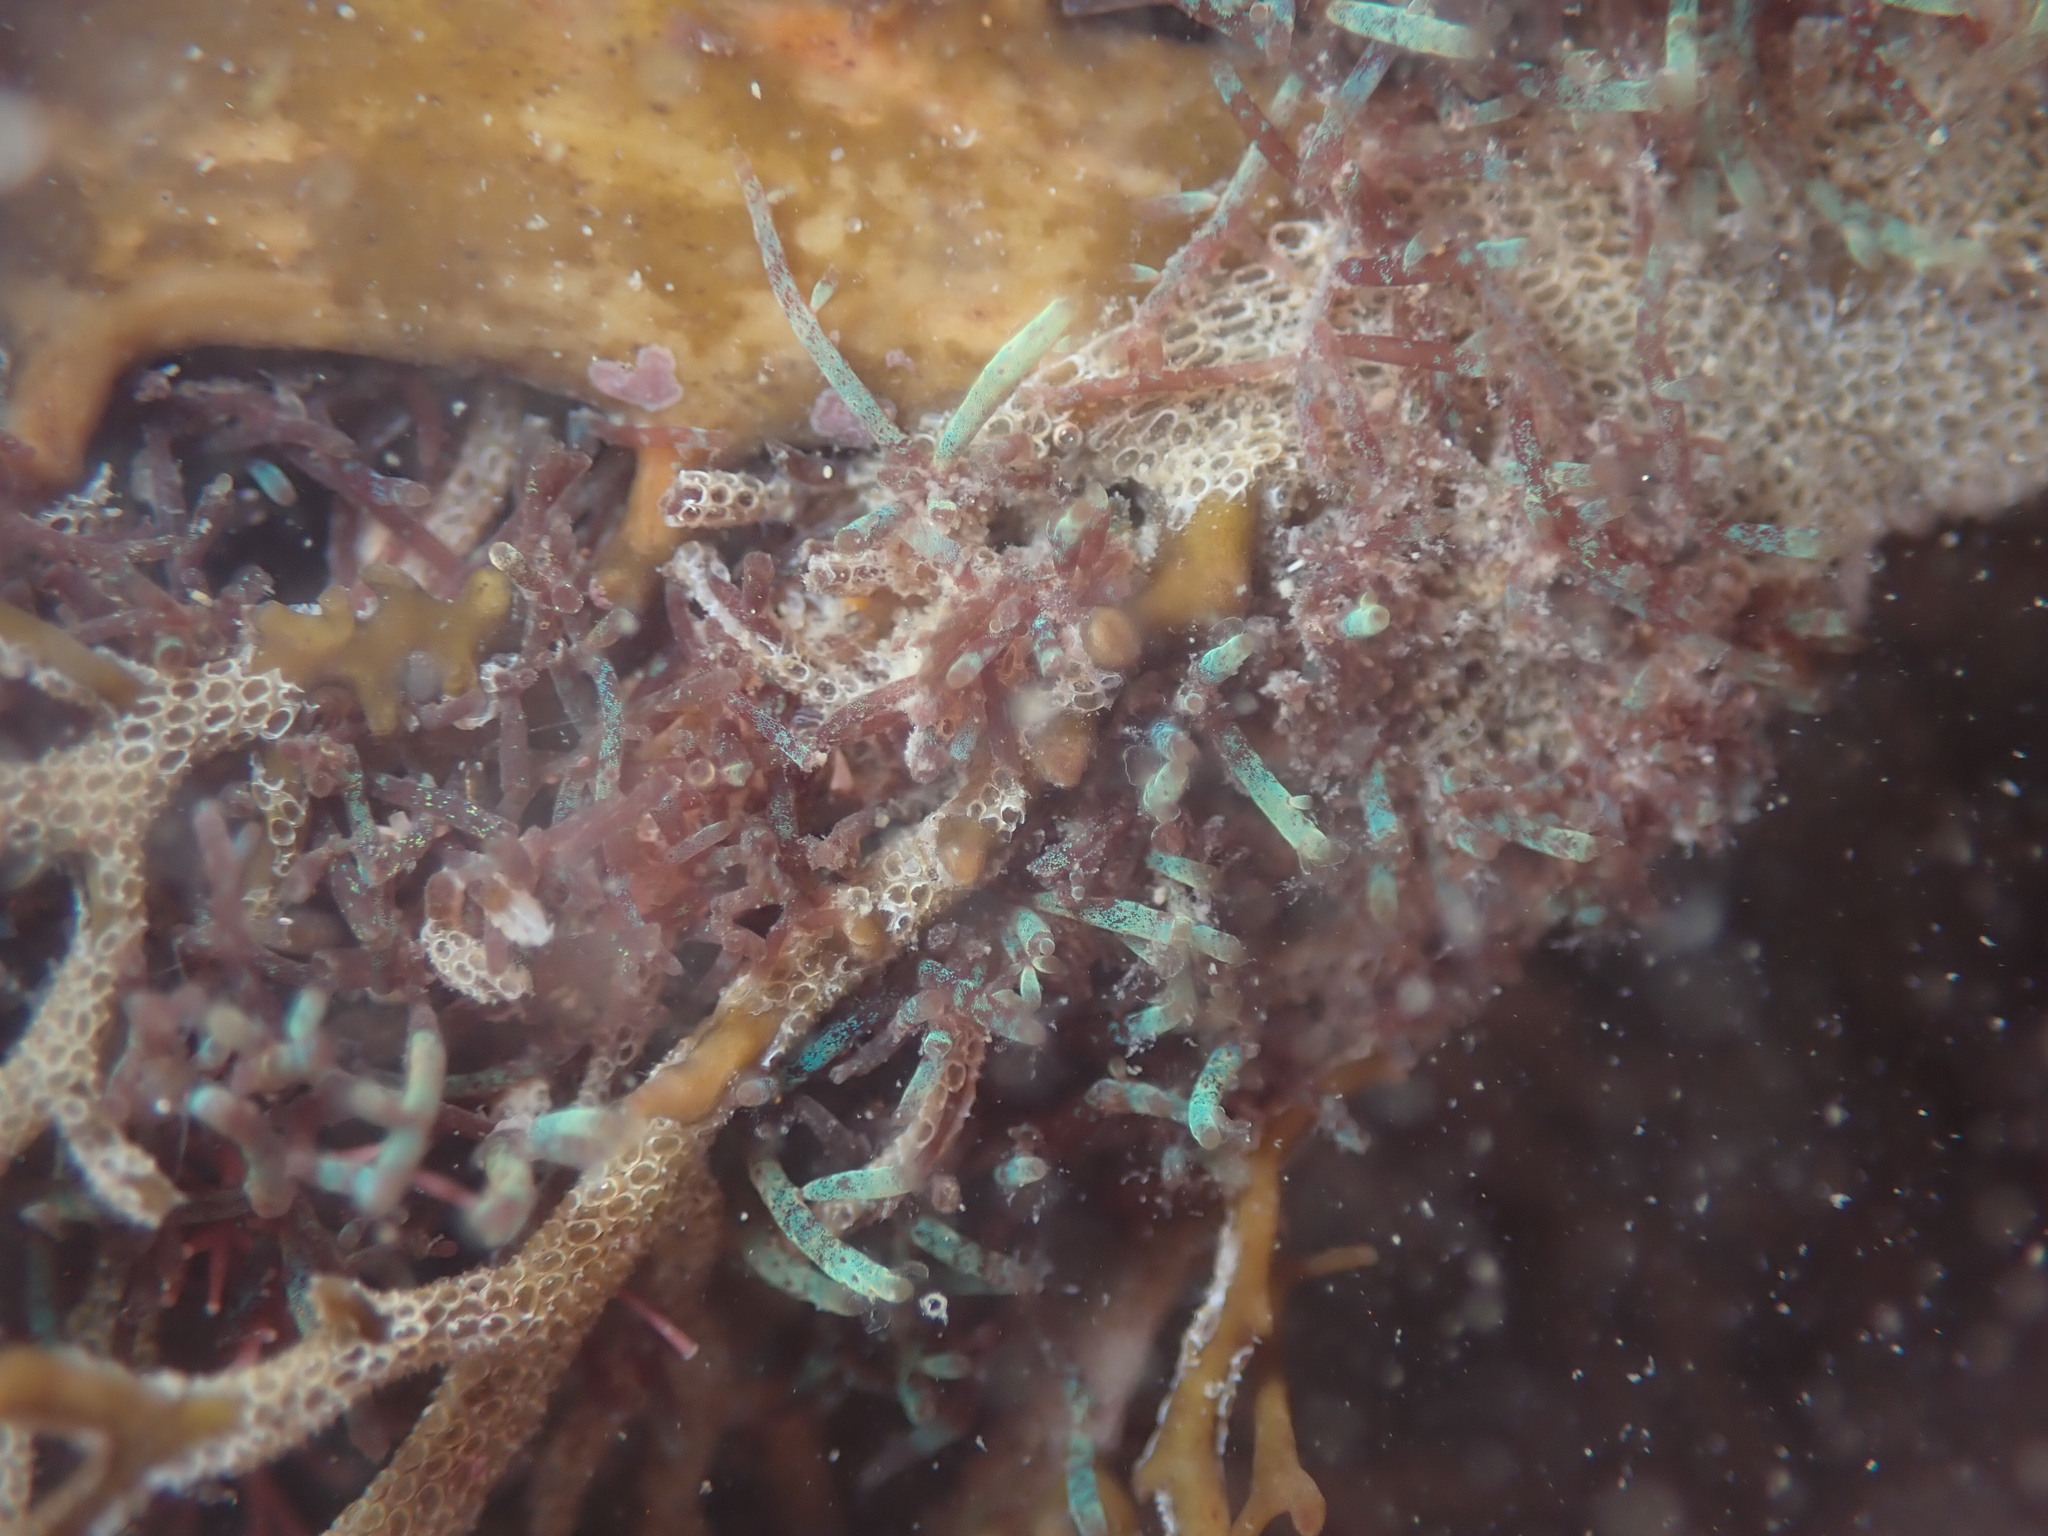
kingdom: Plantae
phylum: Rhodophyta
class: Florideophyceae
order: Rhodymeniales
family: Champiaceae
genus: Champia
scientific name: Champia laingii
